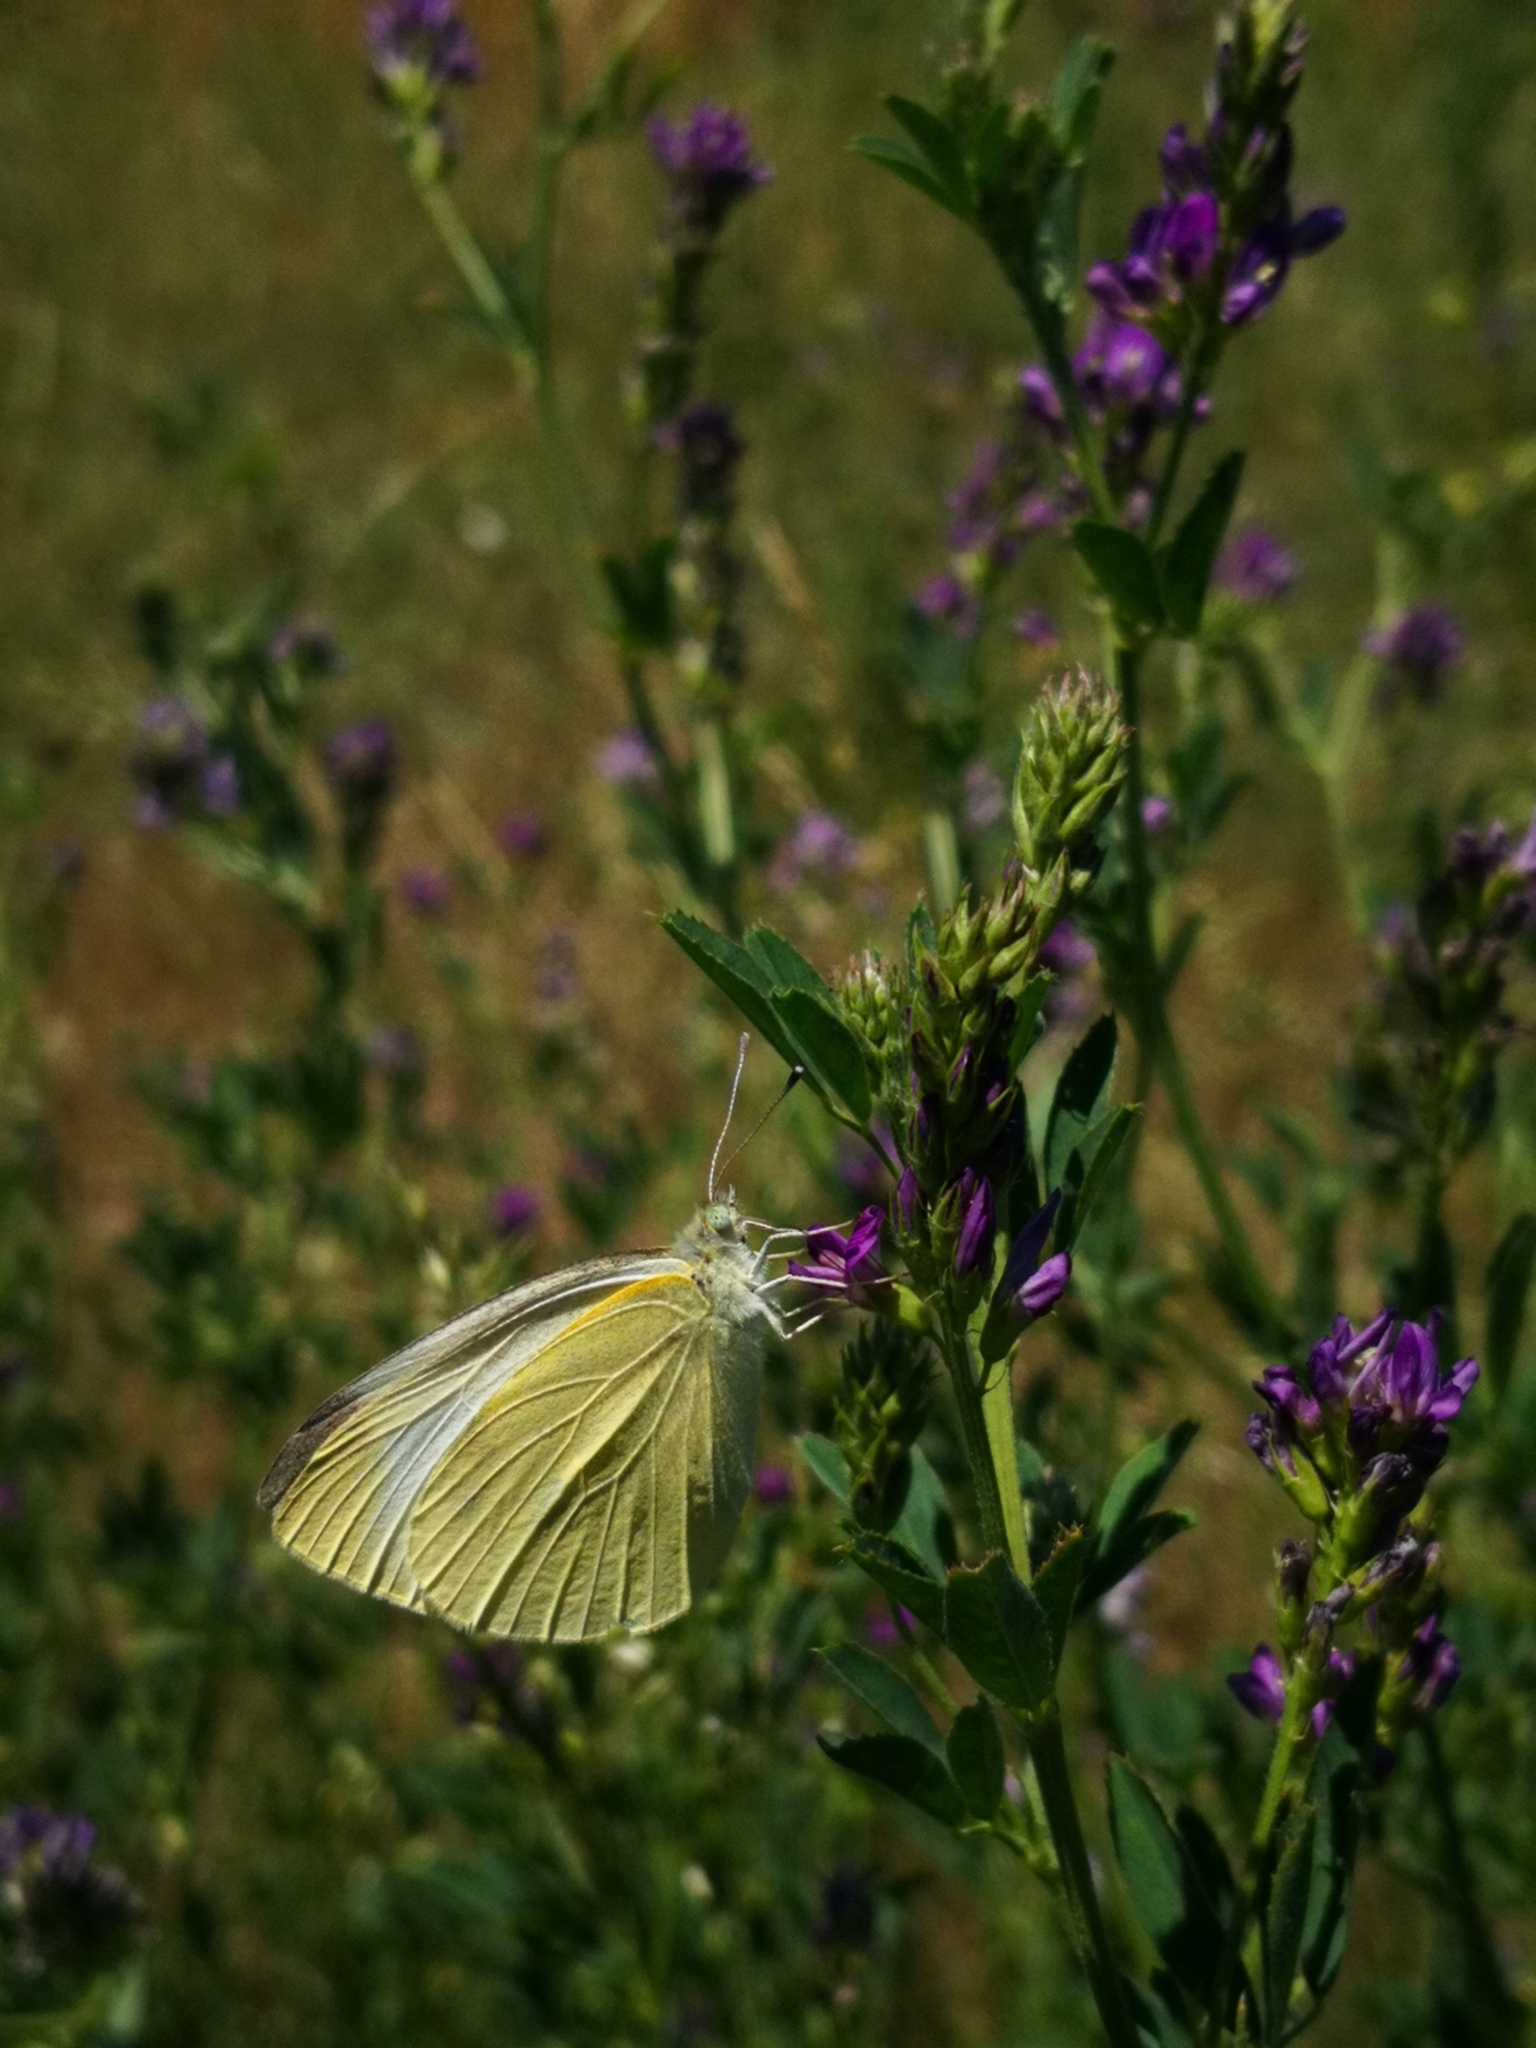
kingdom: Animalia
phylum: Arthropoda
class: Insecta
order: Lepidoptera
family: Pieridae
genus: Pieris
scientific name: Pieris rapae
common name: Small white
